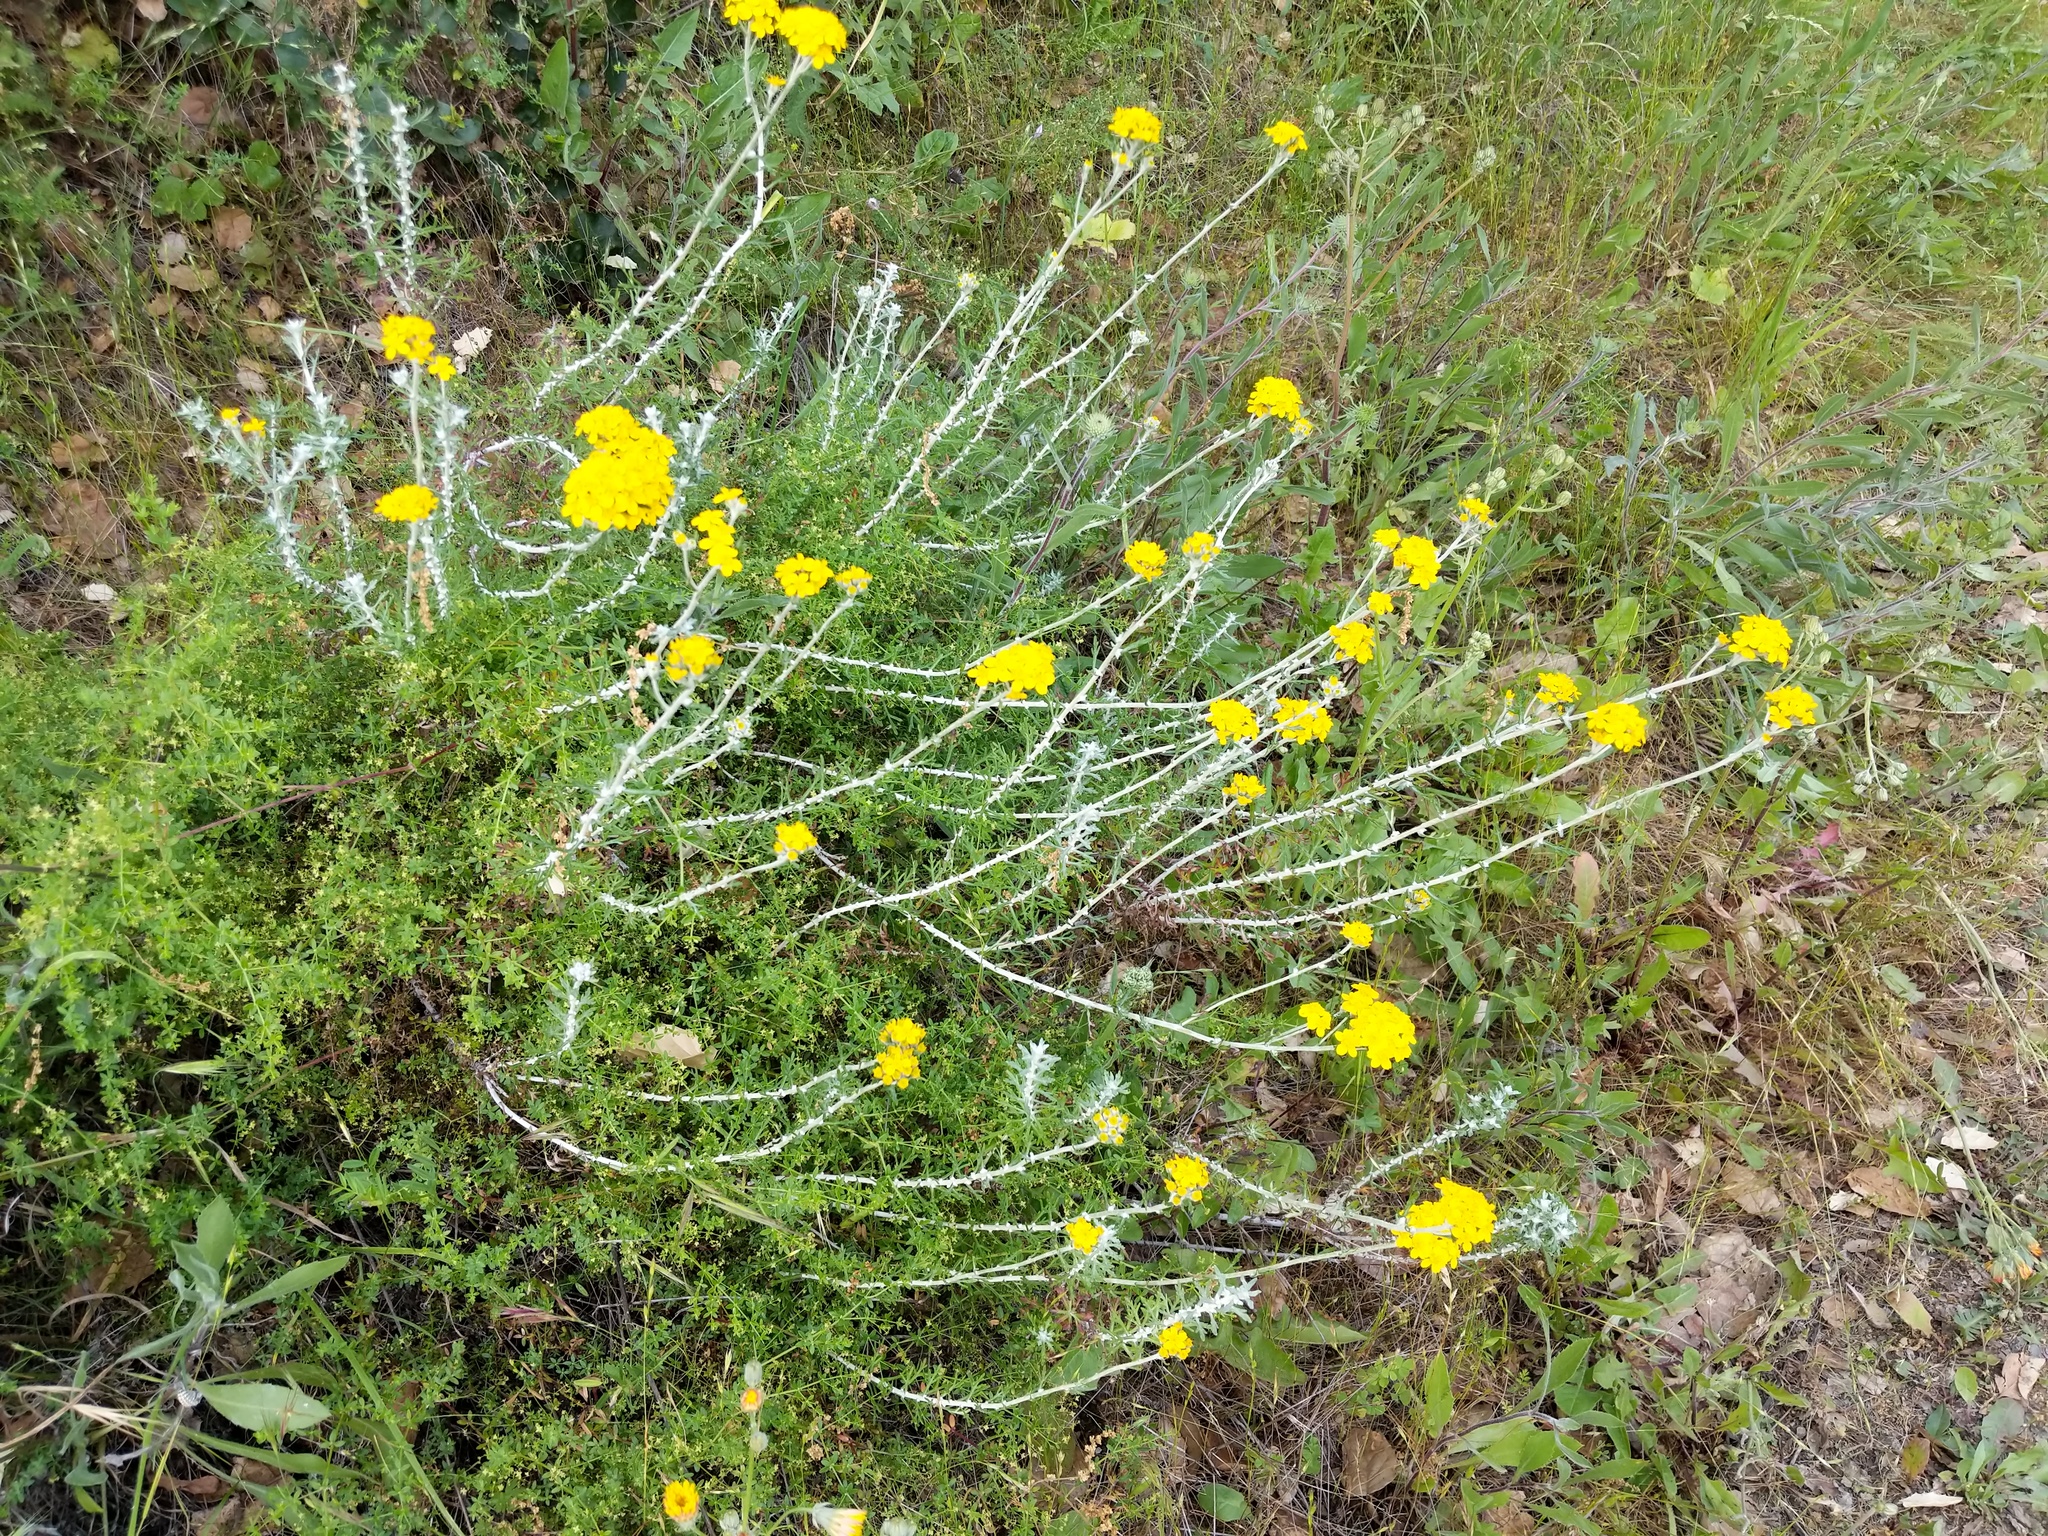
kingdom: Plantae
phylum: Tracheophyta
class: Magnoliopsida
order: Asterales
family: Asteraceae
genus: Eriophyllum
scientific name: Eriophyllum confertiflorum
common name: Golden-yarrow
